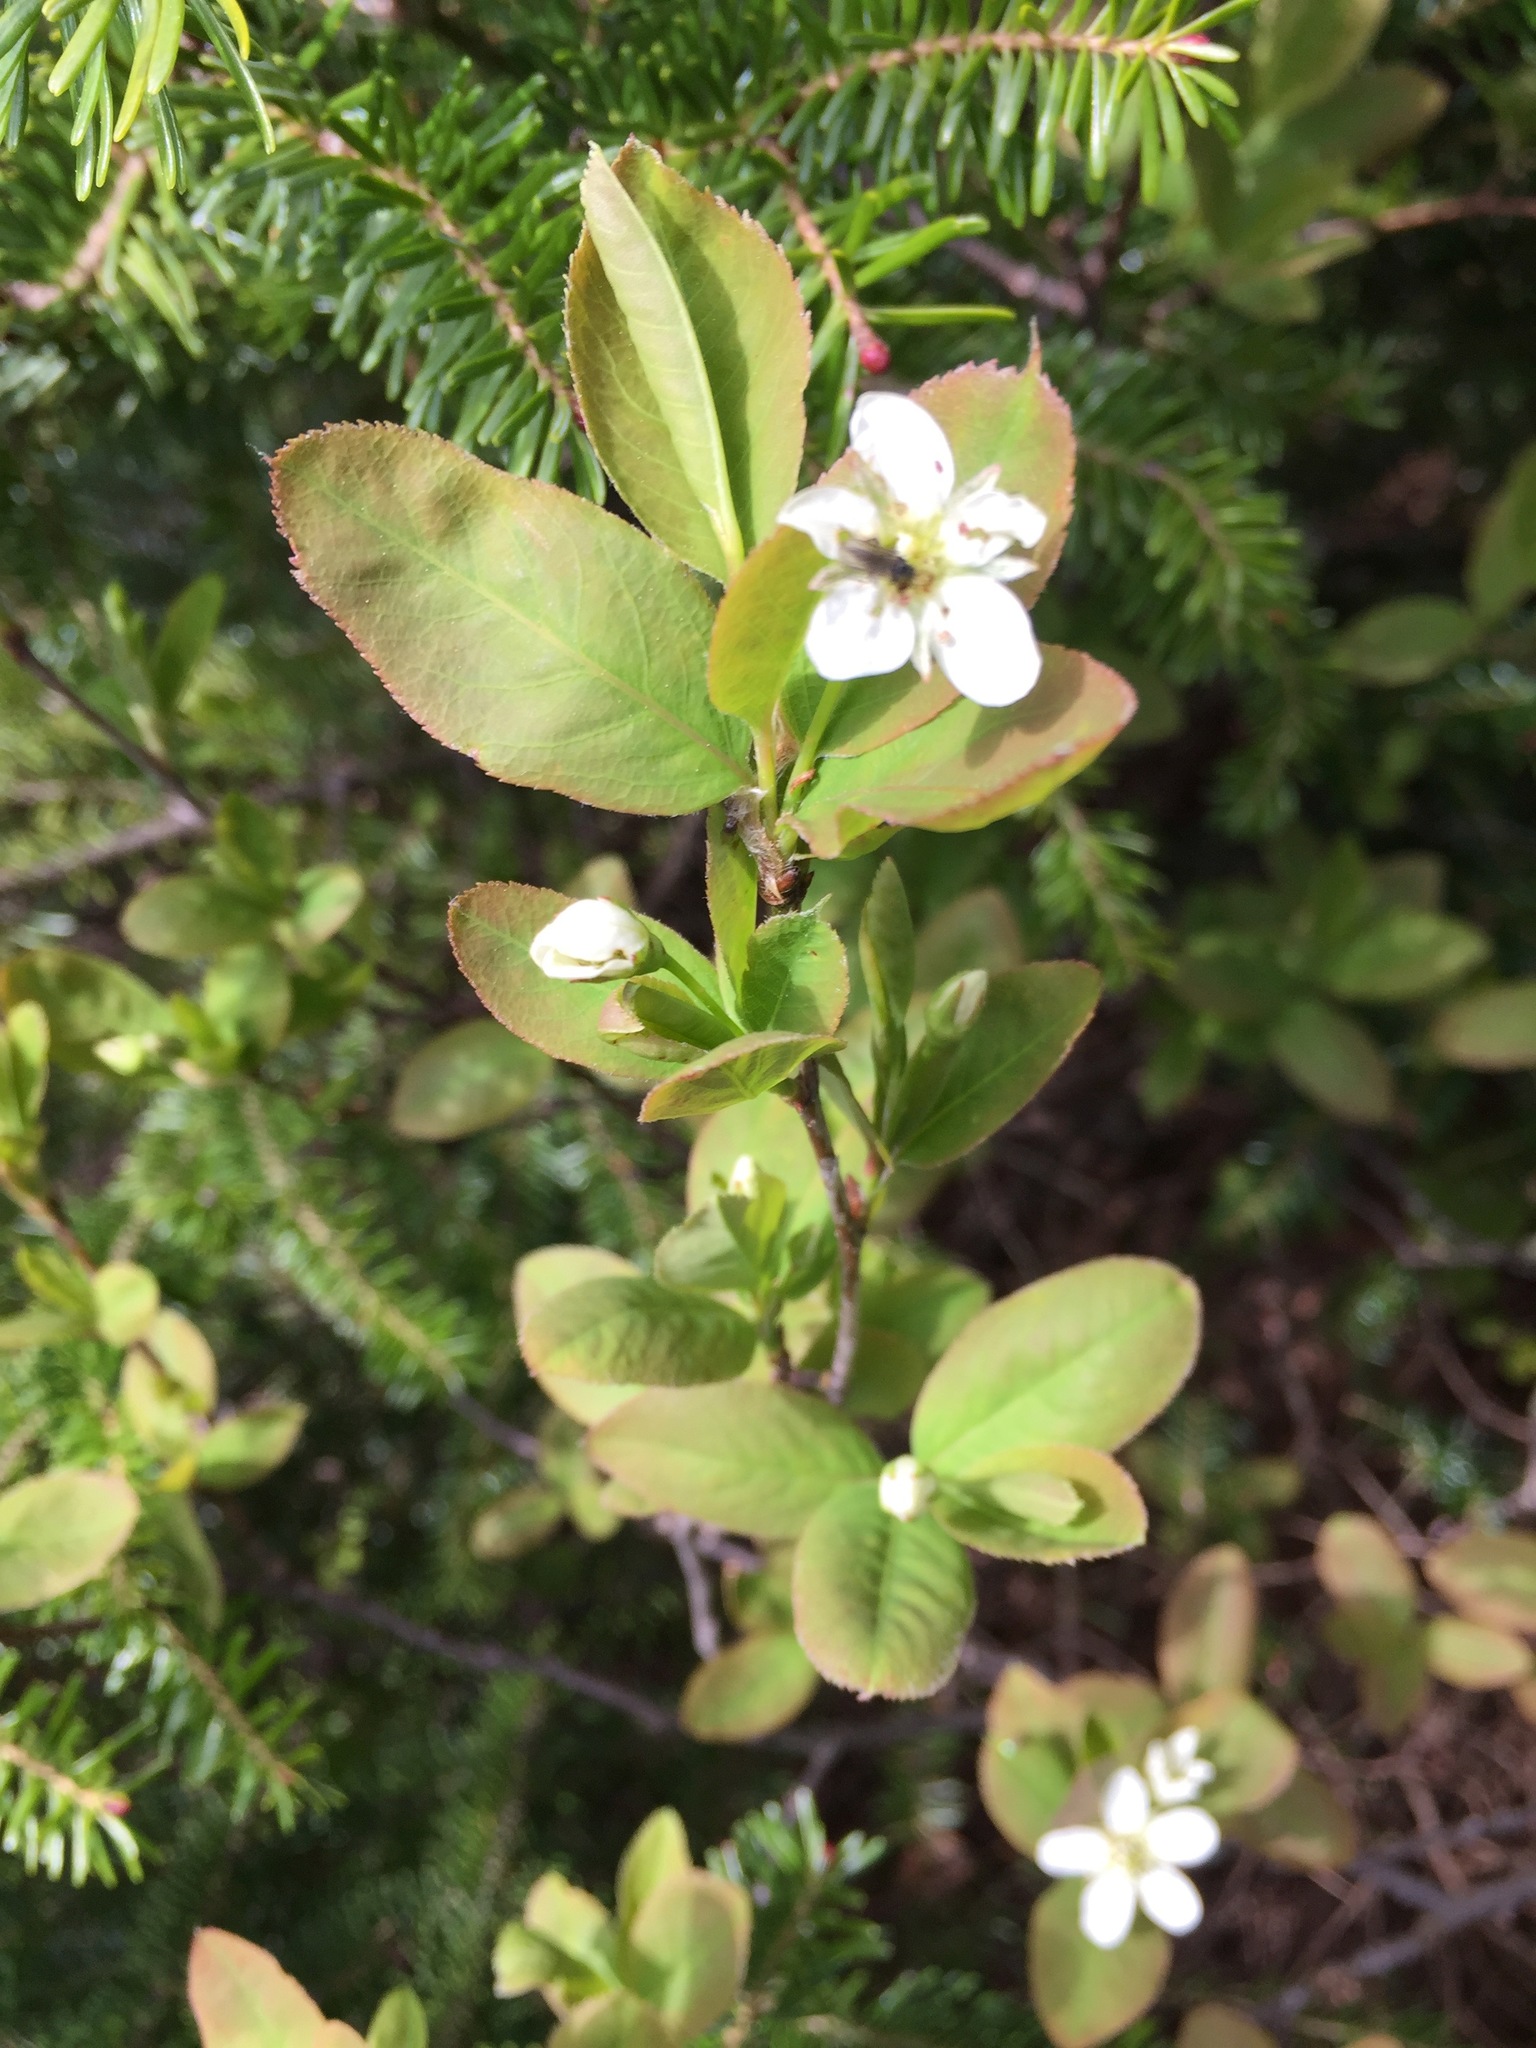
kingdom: Plantae
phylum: Tracheophyta
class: Magnoliopsida
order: Rosales
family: Rosaceae
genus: Amelanchier
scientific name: Amelanchier bartramiana
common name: Mountain serviceberry
